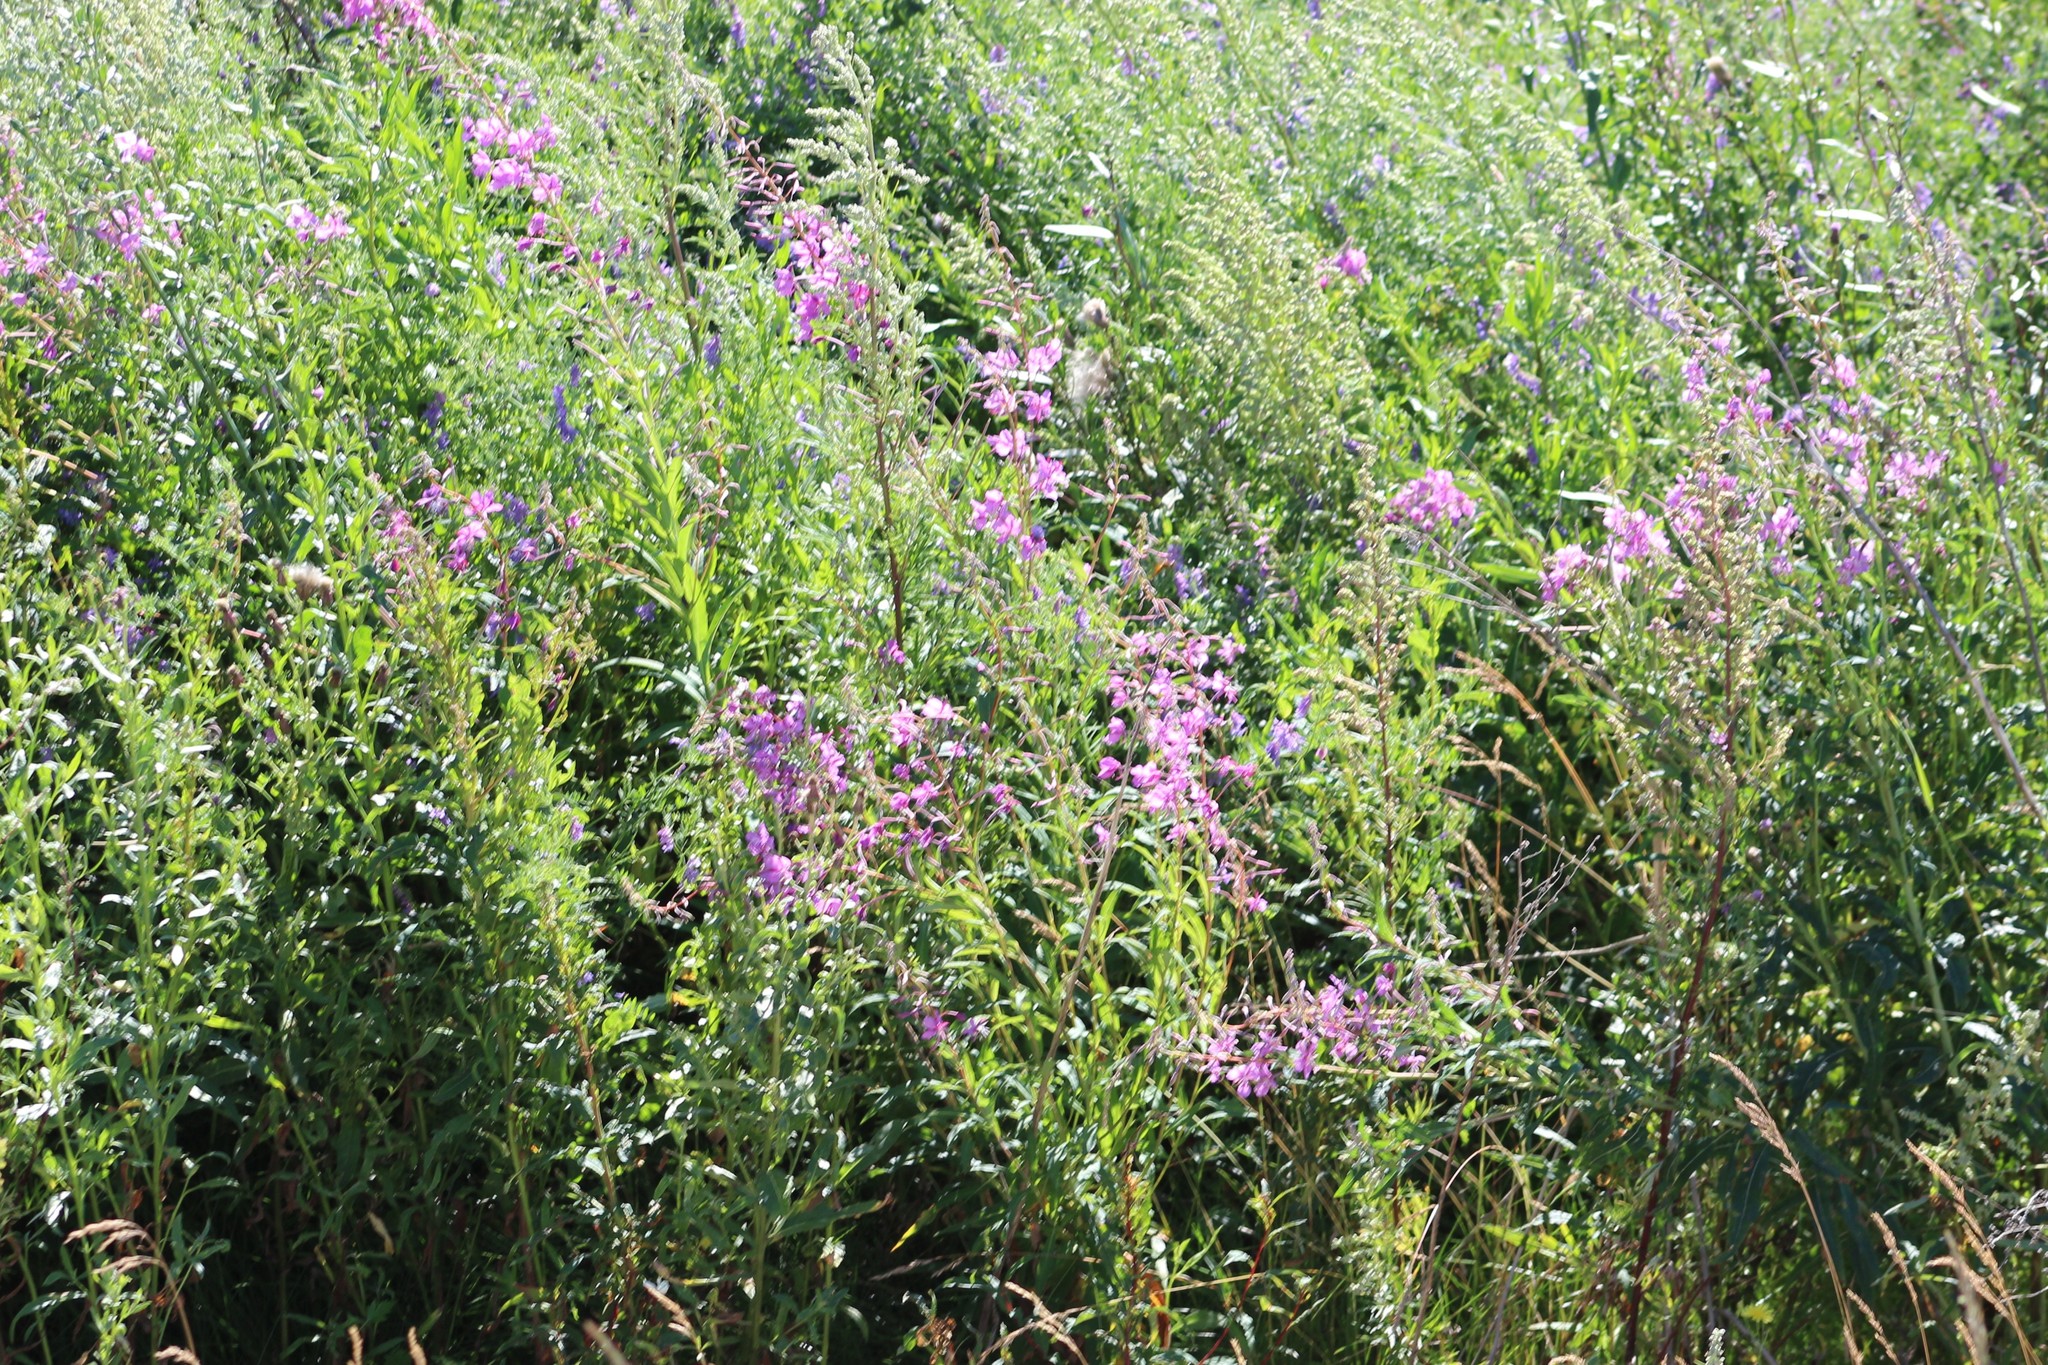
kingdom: Plantae
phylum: Tracheophyta
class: Magnoliopsida
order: Myrtales
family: Onagraceae
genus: Chamaenerion
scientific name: Chamaenerion angustifolium
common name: Fireweed
